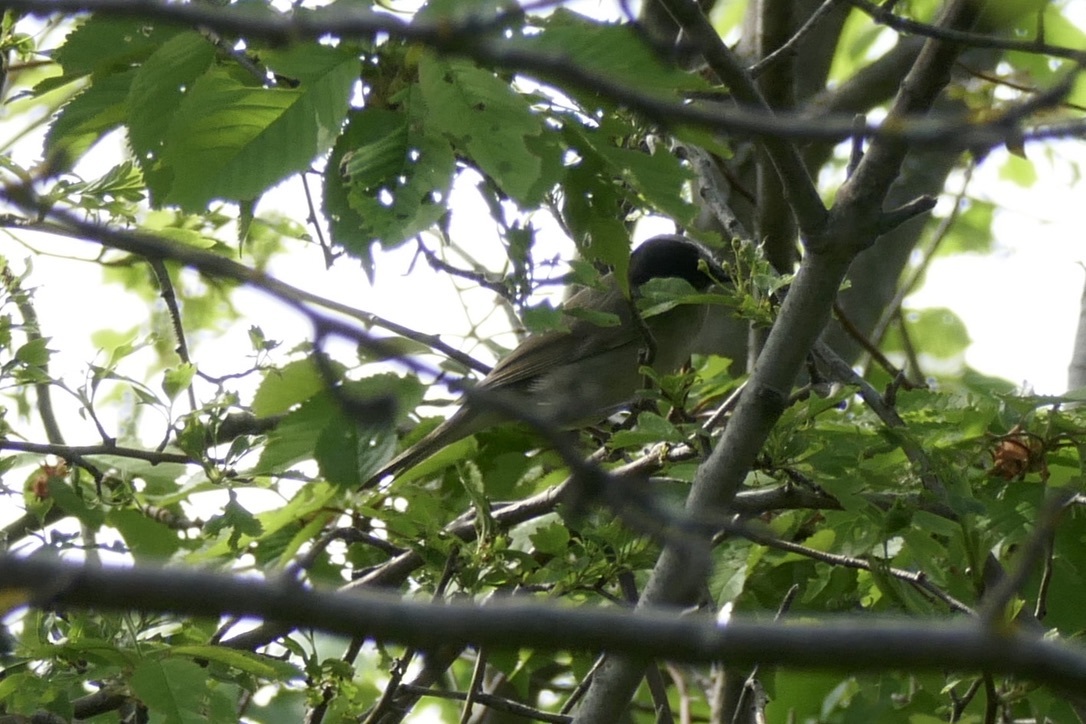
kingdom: Animalia
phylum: Chordata
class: Aves
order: Passeriformes
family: Sylviidae
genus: Sylvia
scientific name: Sylvia atricapilla
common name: Eurasian blackcap
